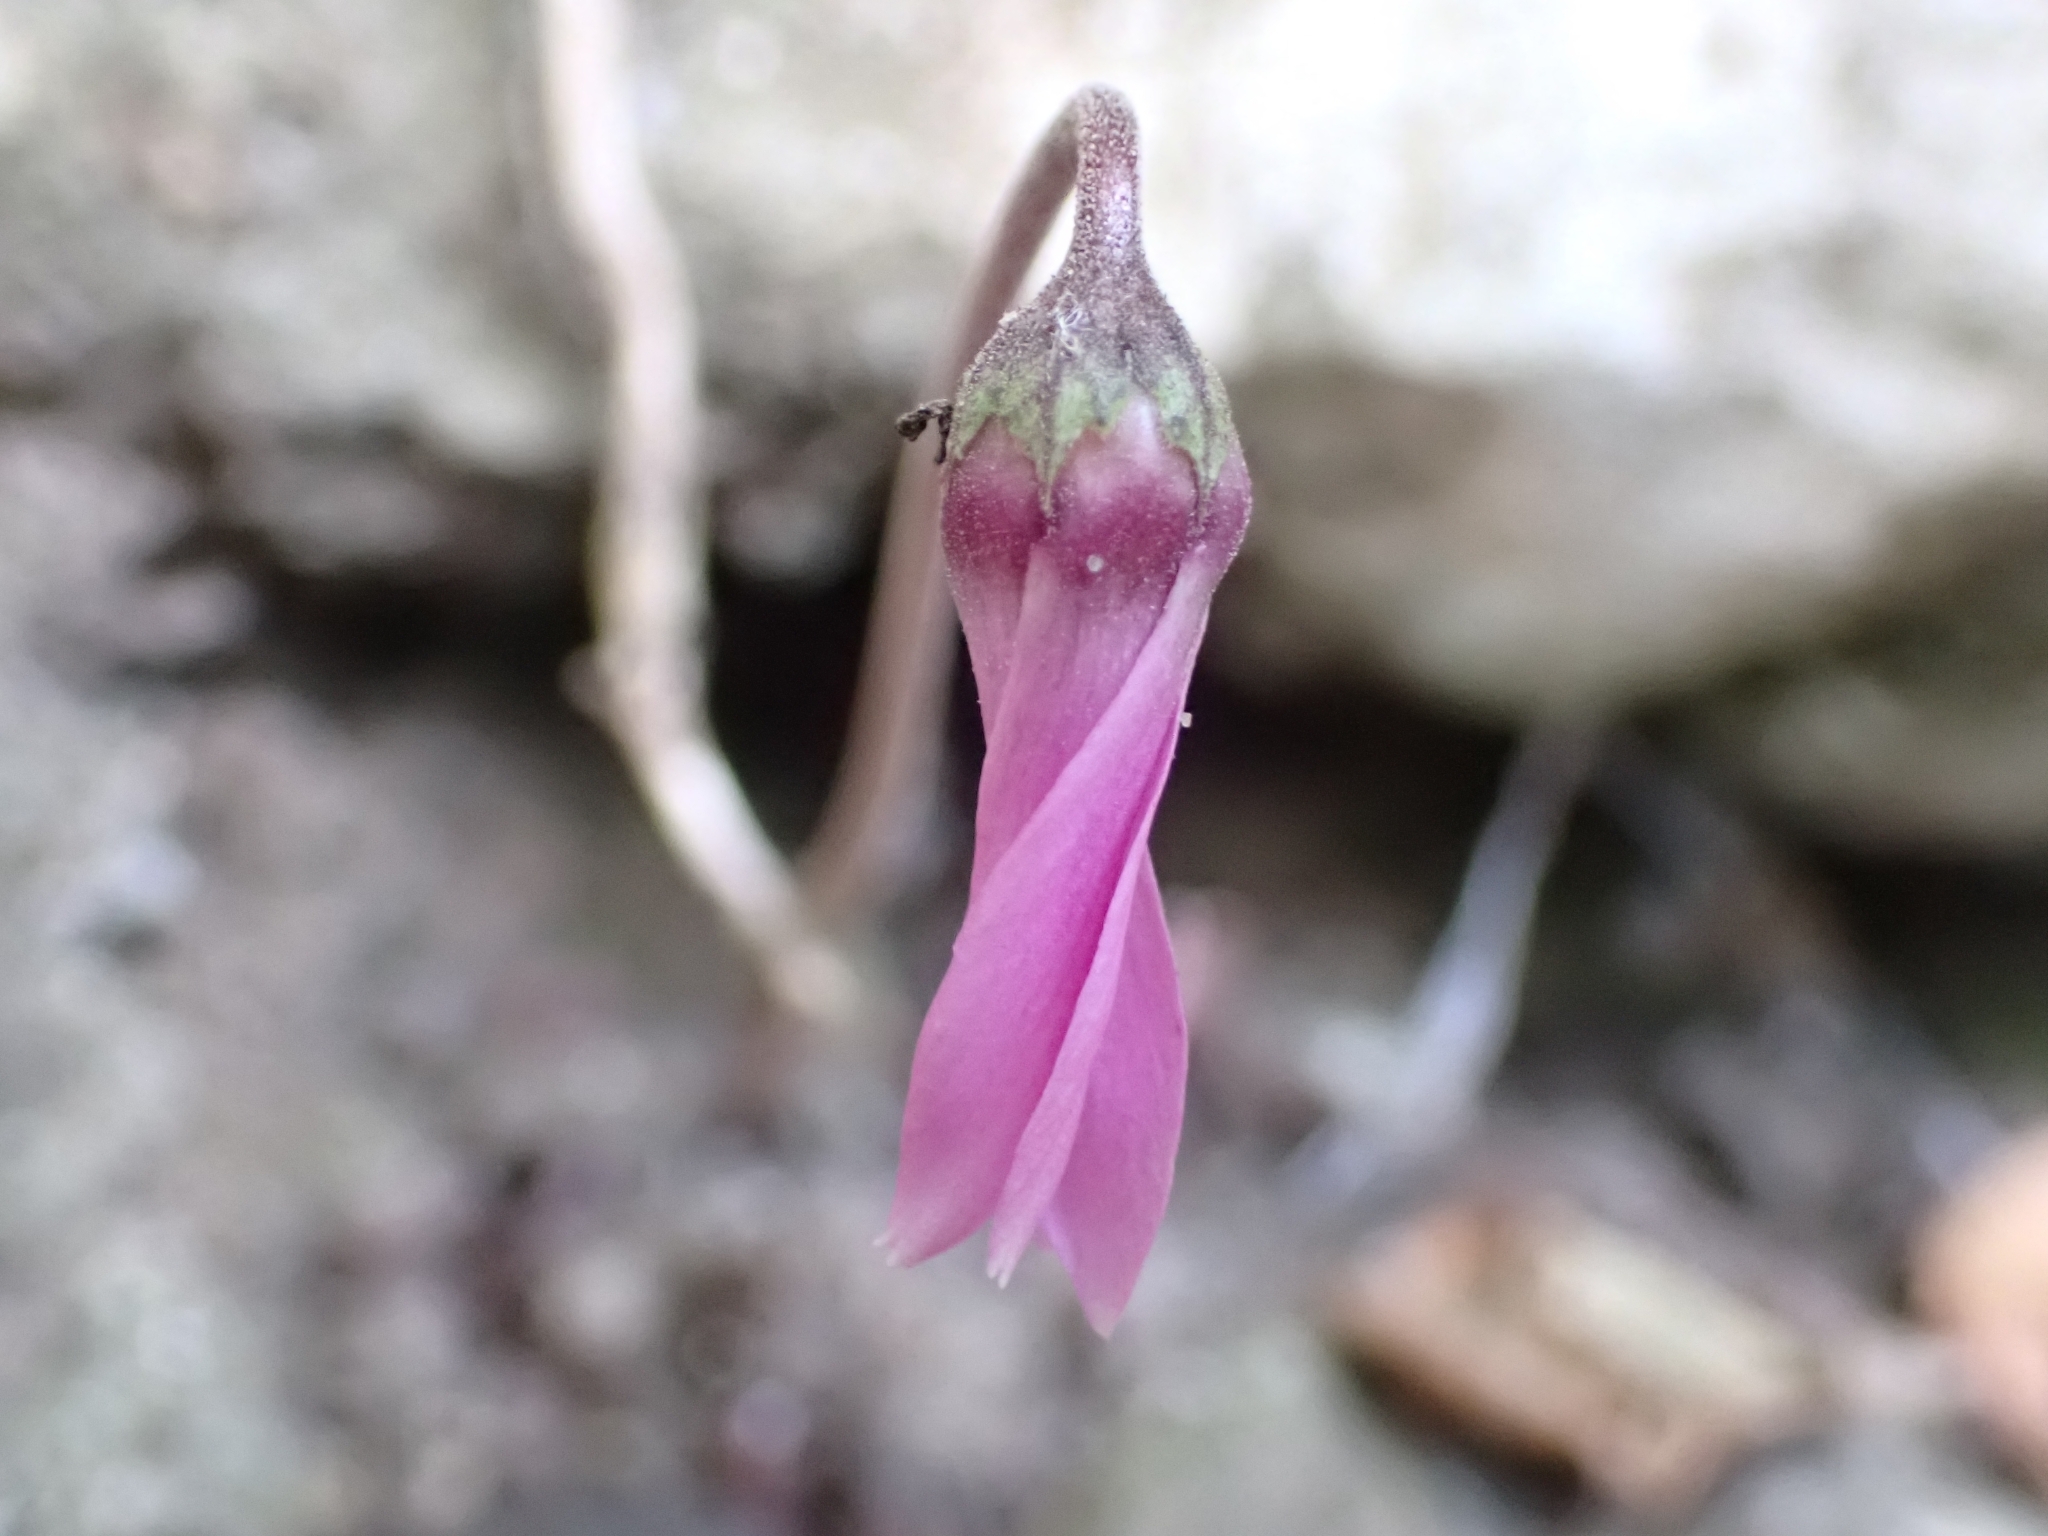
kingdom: Plantae
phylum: Tracheophyta
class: Magnoliopsida
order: Ericales
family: Primulaceae
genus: Cyclamen
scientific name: Cyclamen purpurascens
